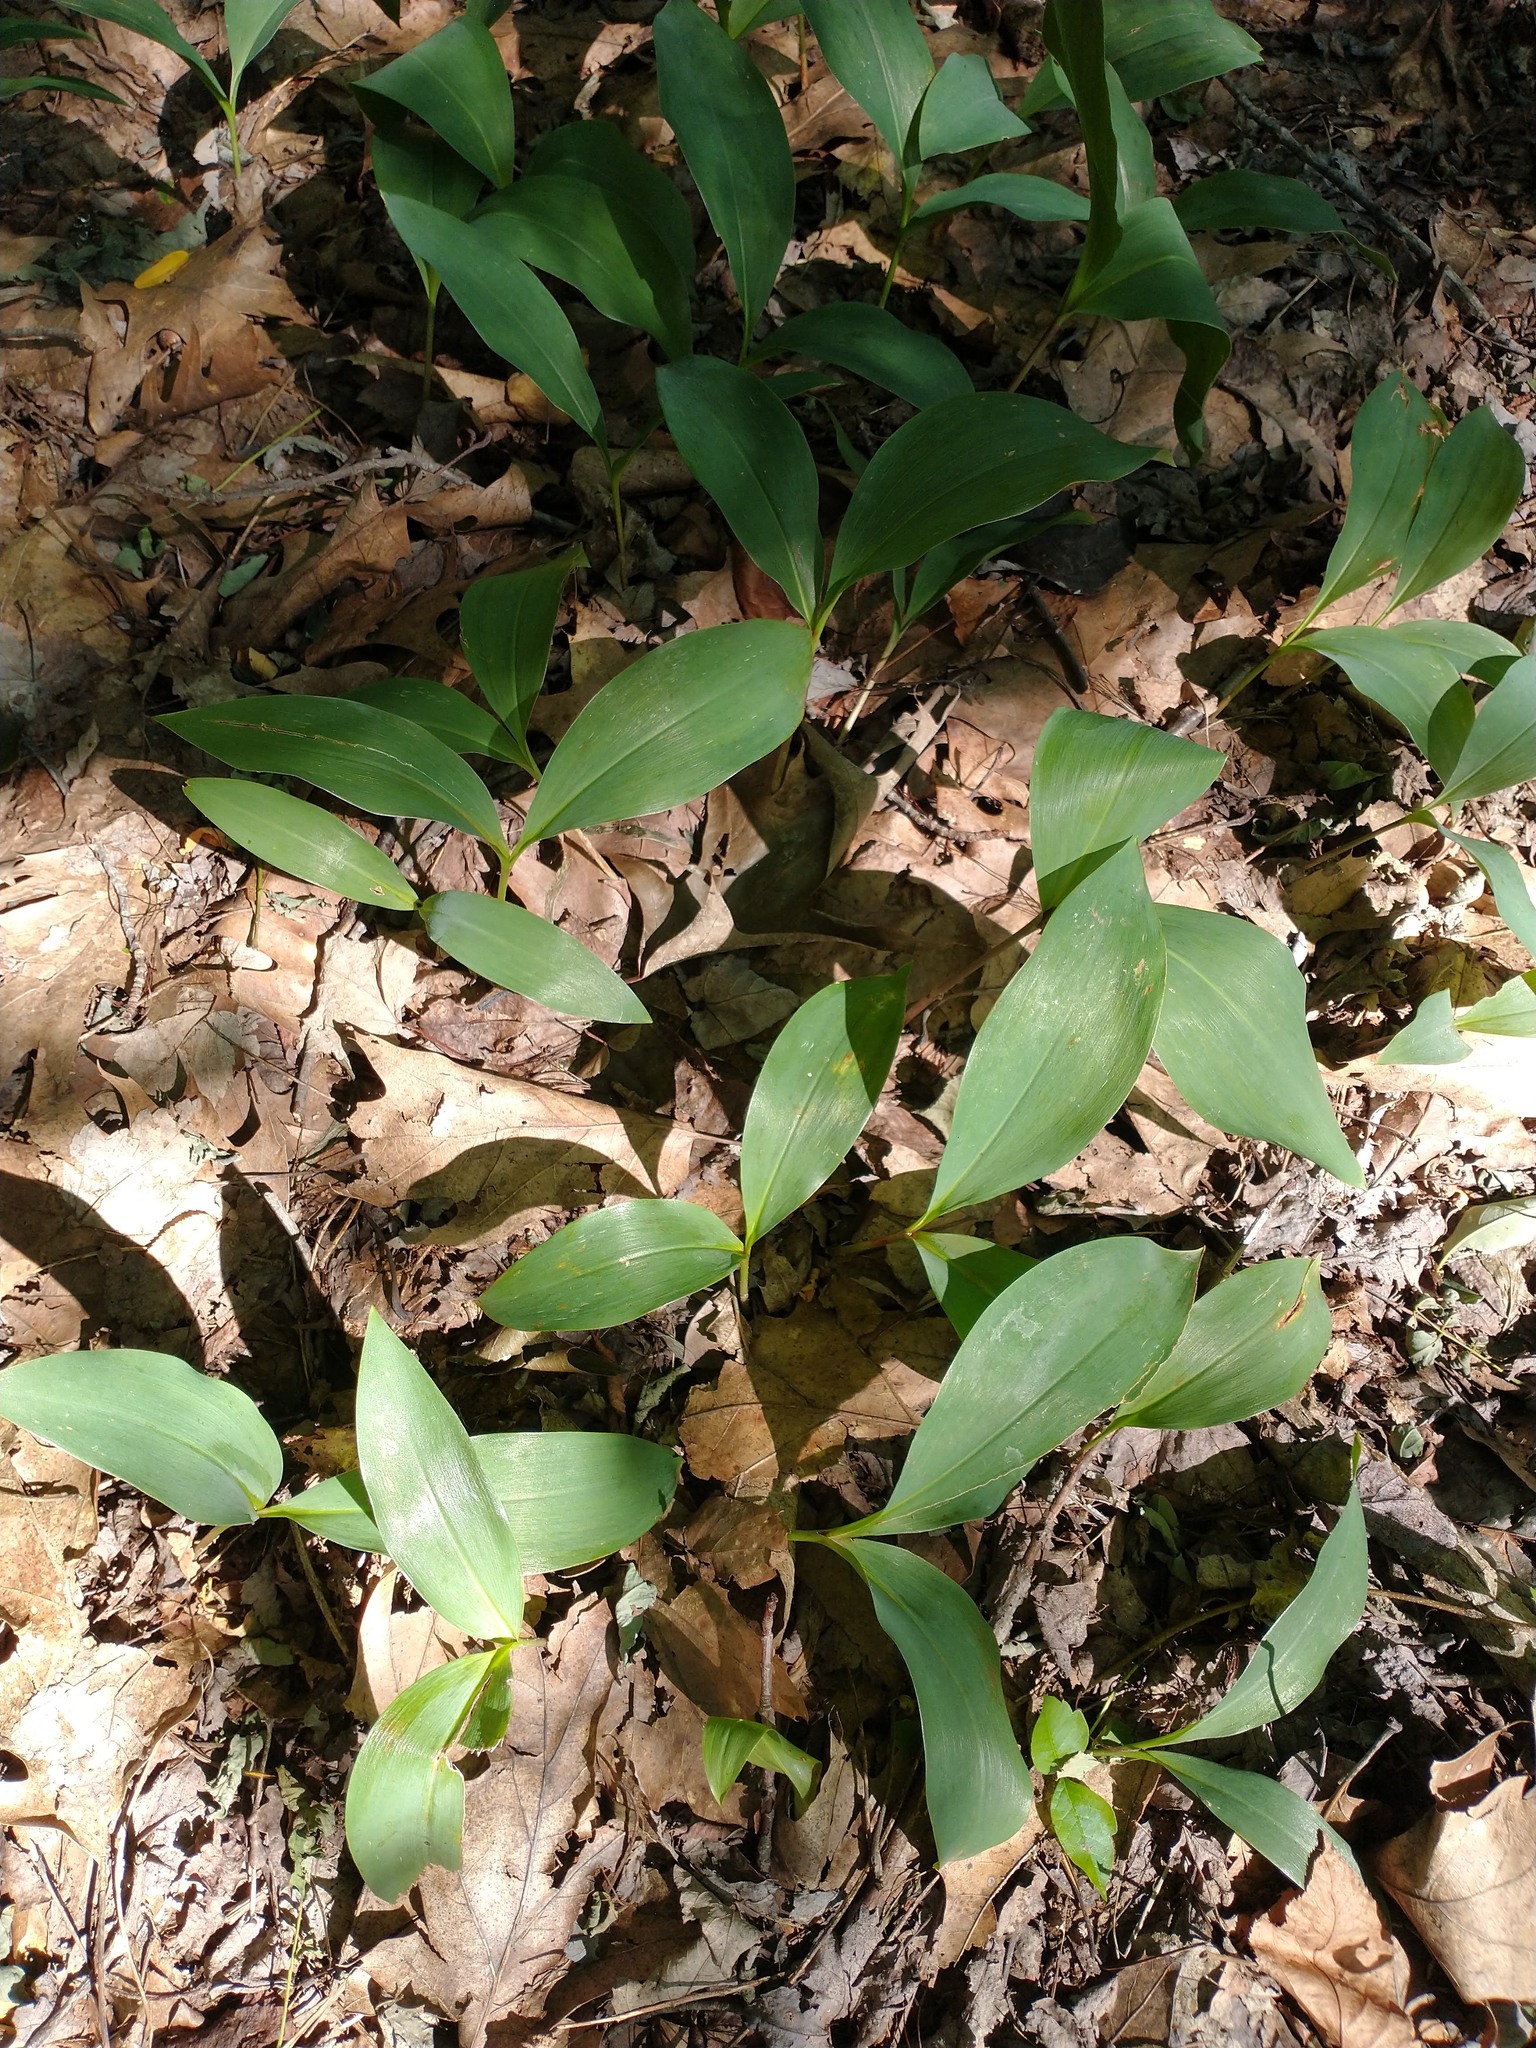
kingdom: Plantae
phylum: Tracheophyta
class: Liliopsida
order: Asparagales
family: Asparagaceae
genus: Convallaria
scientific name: Convallaria majalis
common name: Lily-of-the-valley
